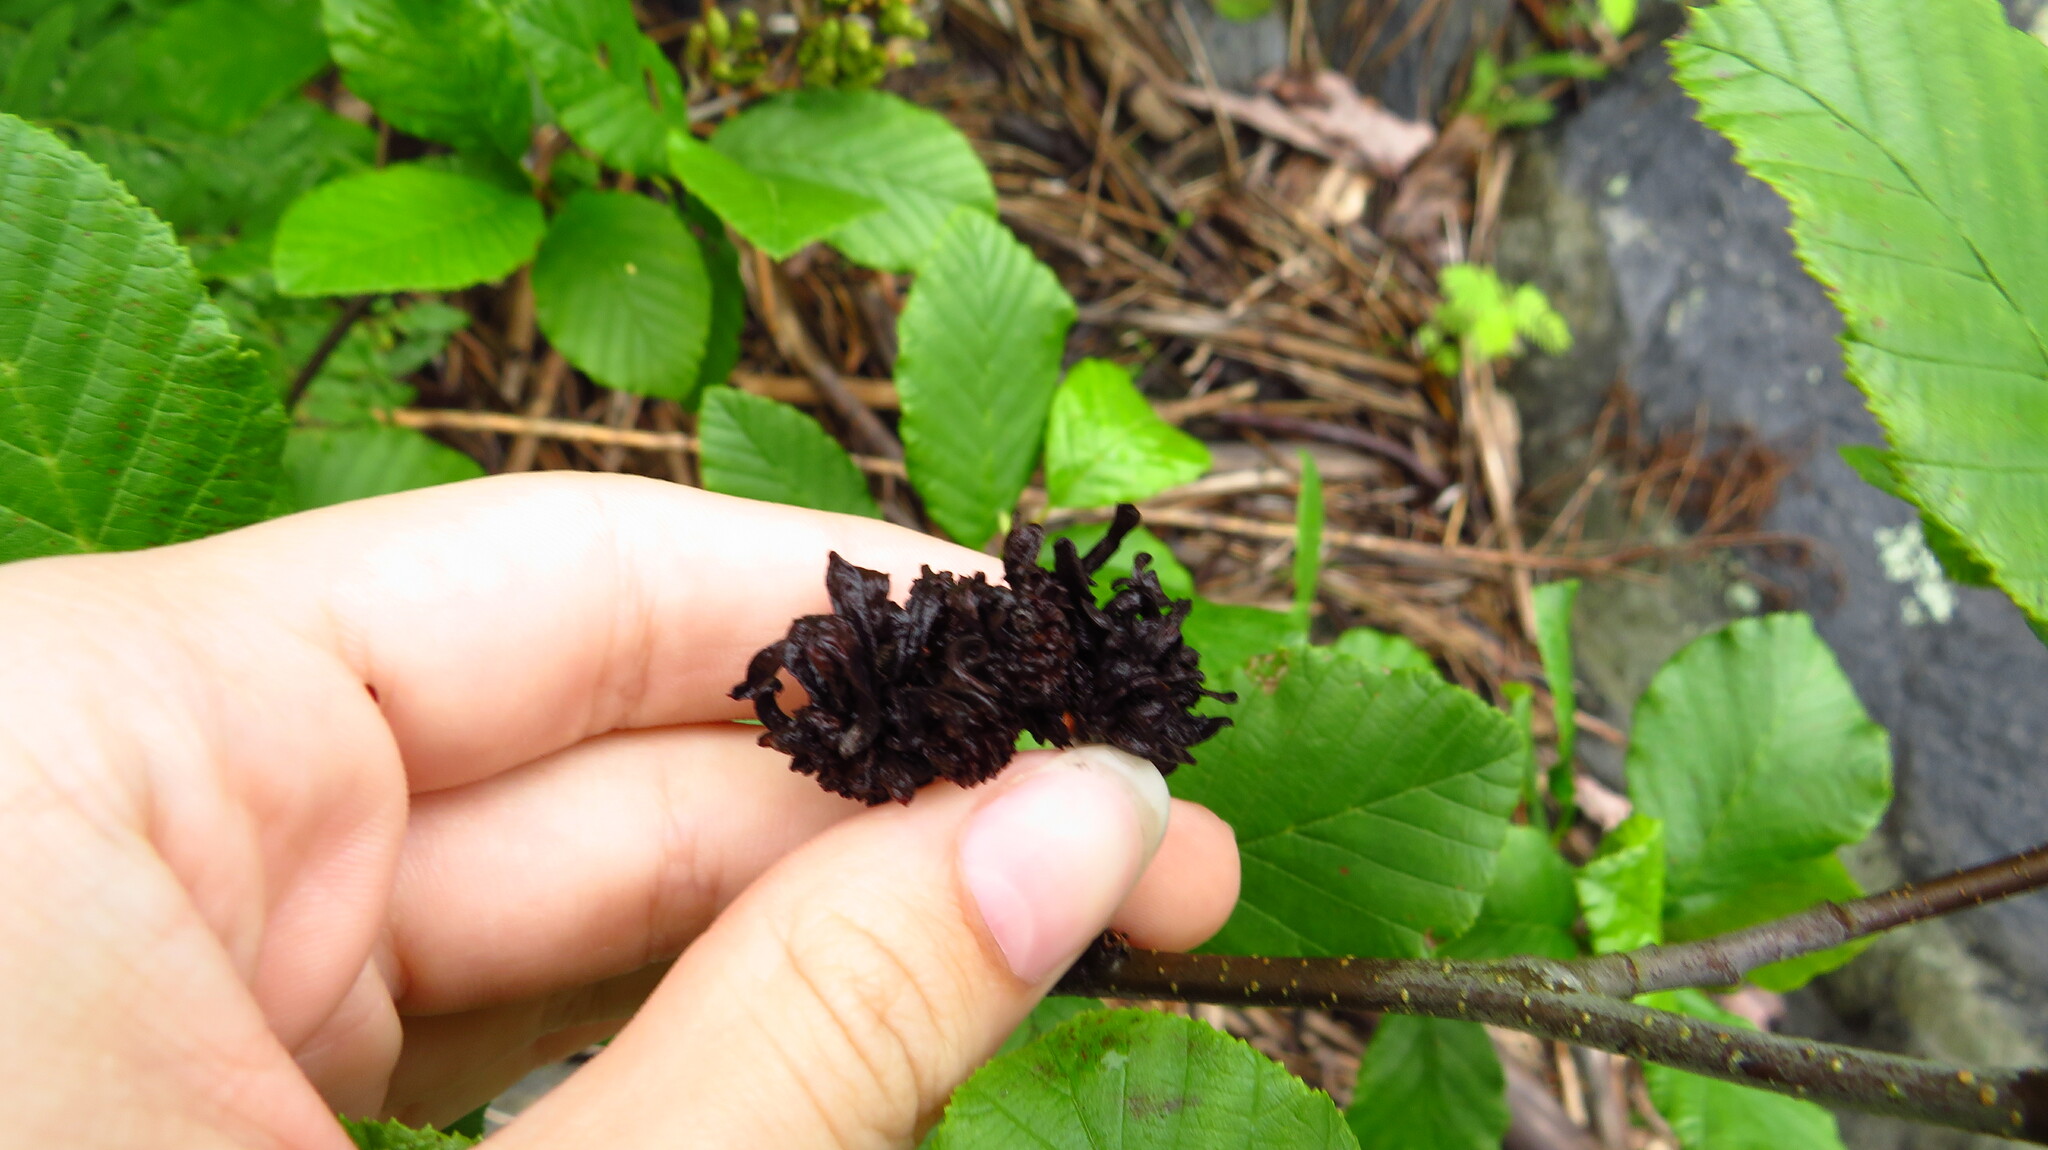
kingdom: Fungi
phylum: Ascomycota
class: Taphrinomycetes
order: Taphrinales
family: Taphrinaceae
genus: Taphrina
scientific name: Taphrina robinsoniana
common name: Eastern american alder tongue gall fungus
